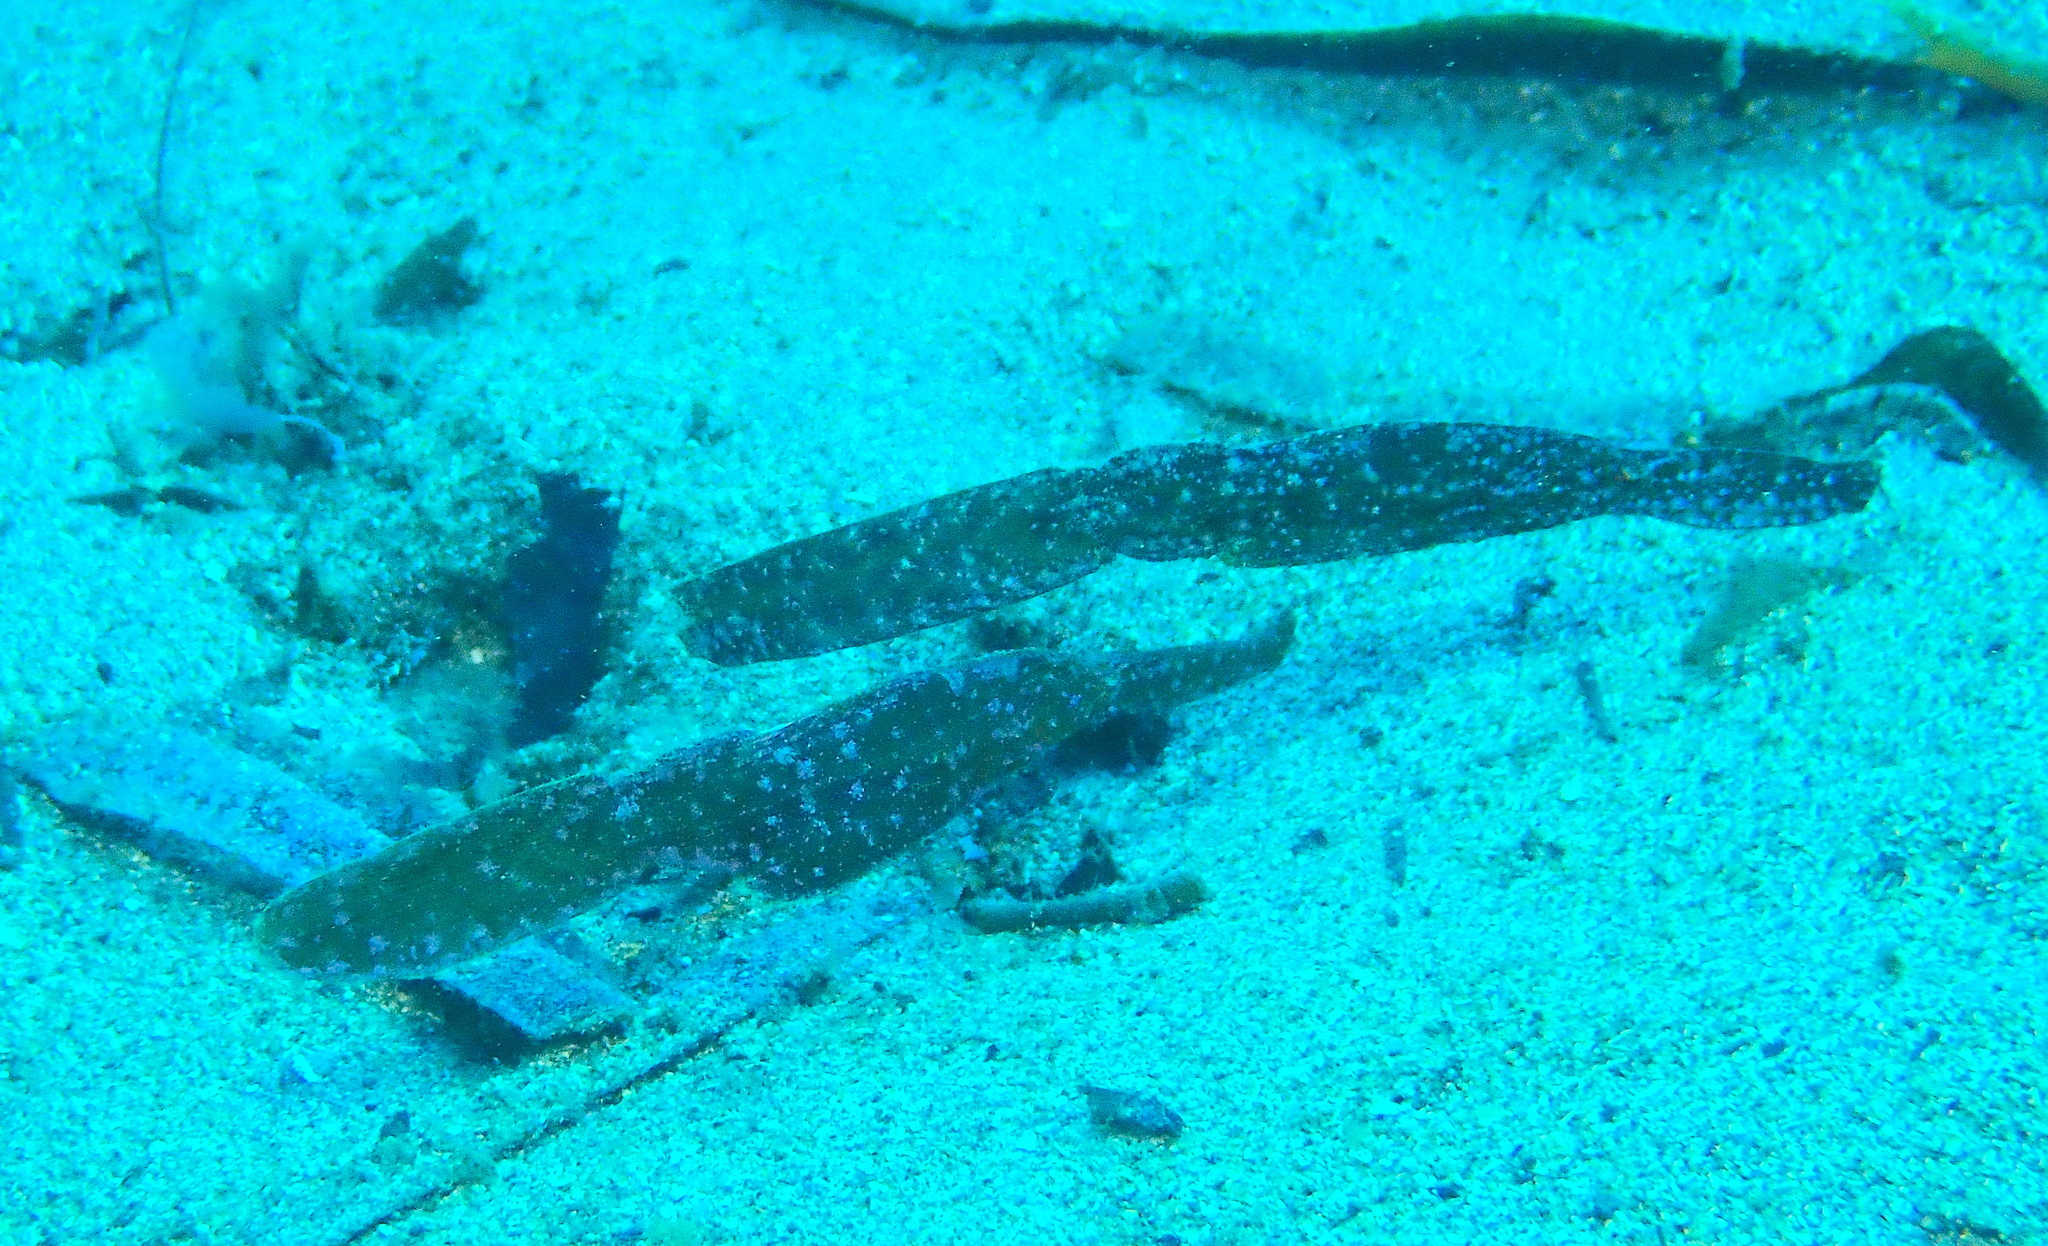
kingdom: Animalia
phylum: Chordata
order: Syngnathiformes
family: Solenostomidae
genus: Solenostomus
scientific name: Solenostomus cyanopterus
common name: Blue-finned ghost pipefish
